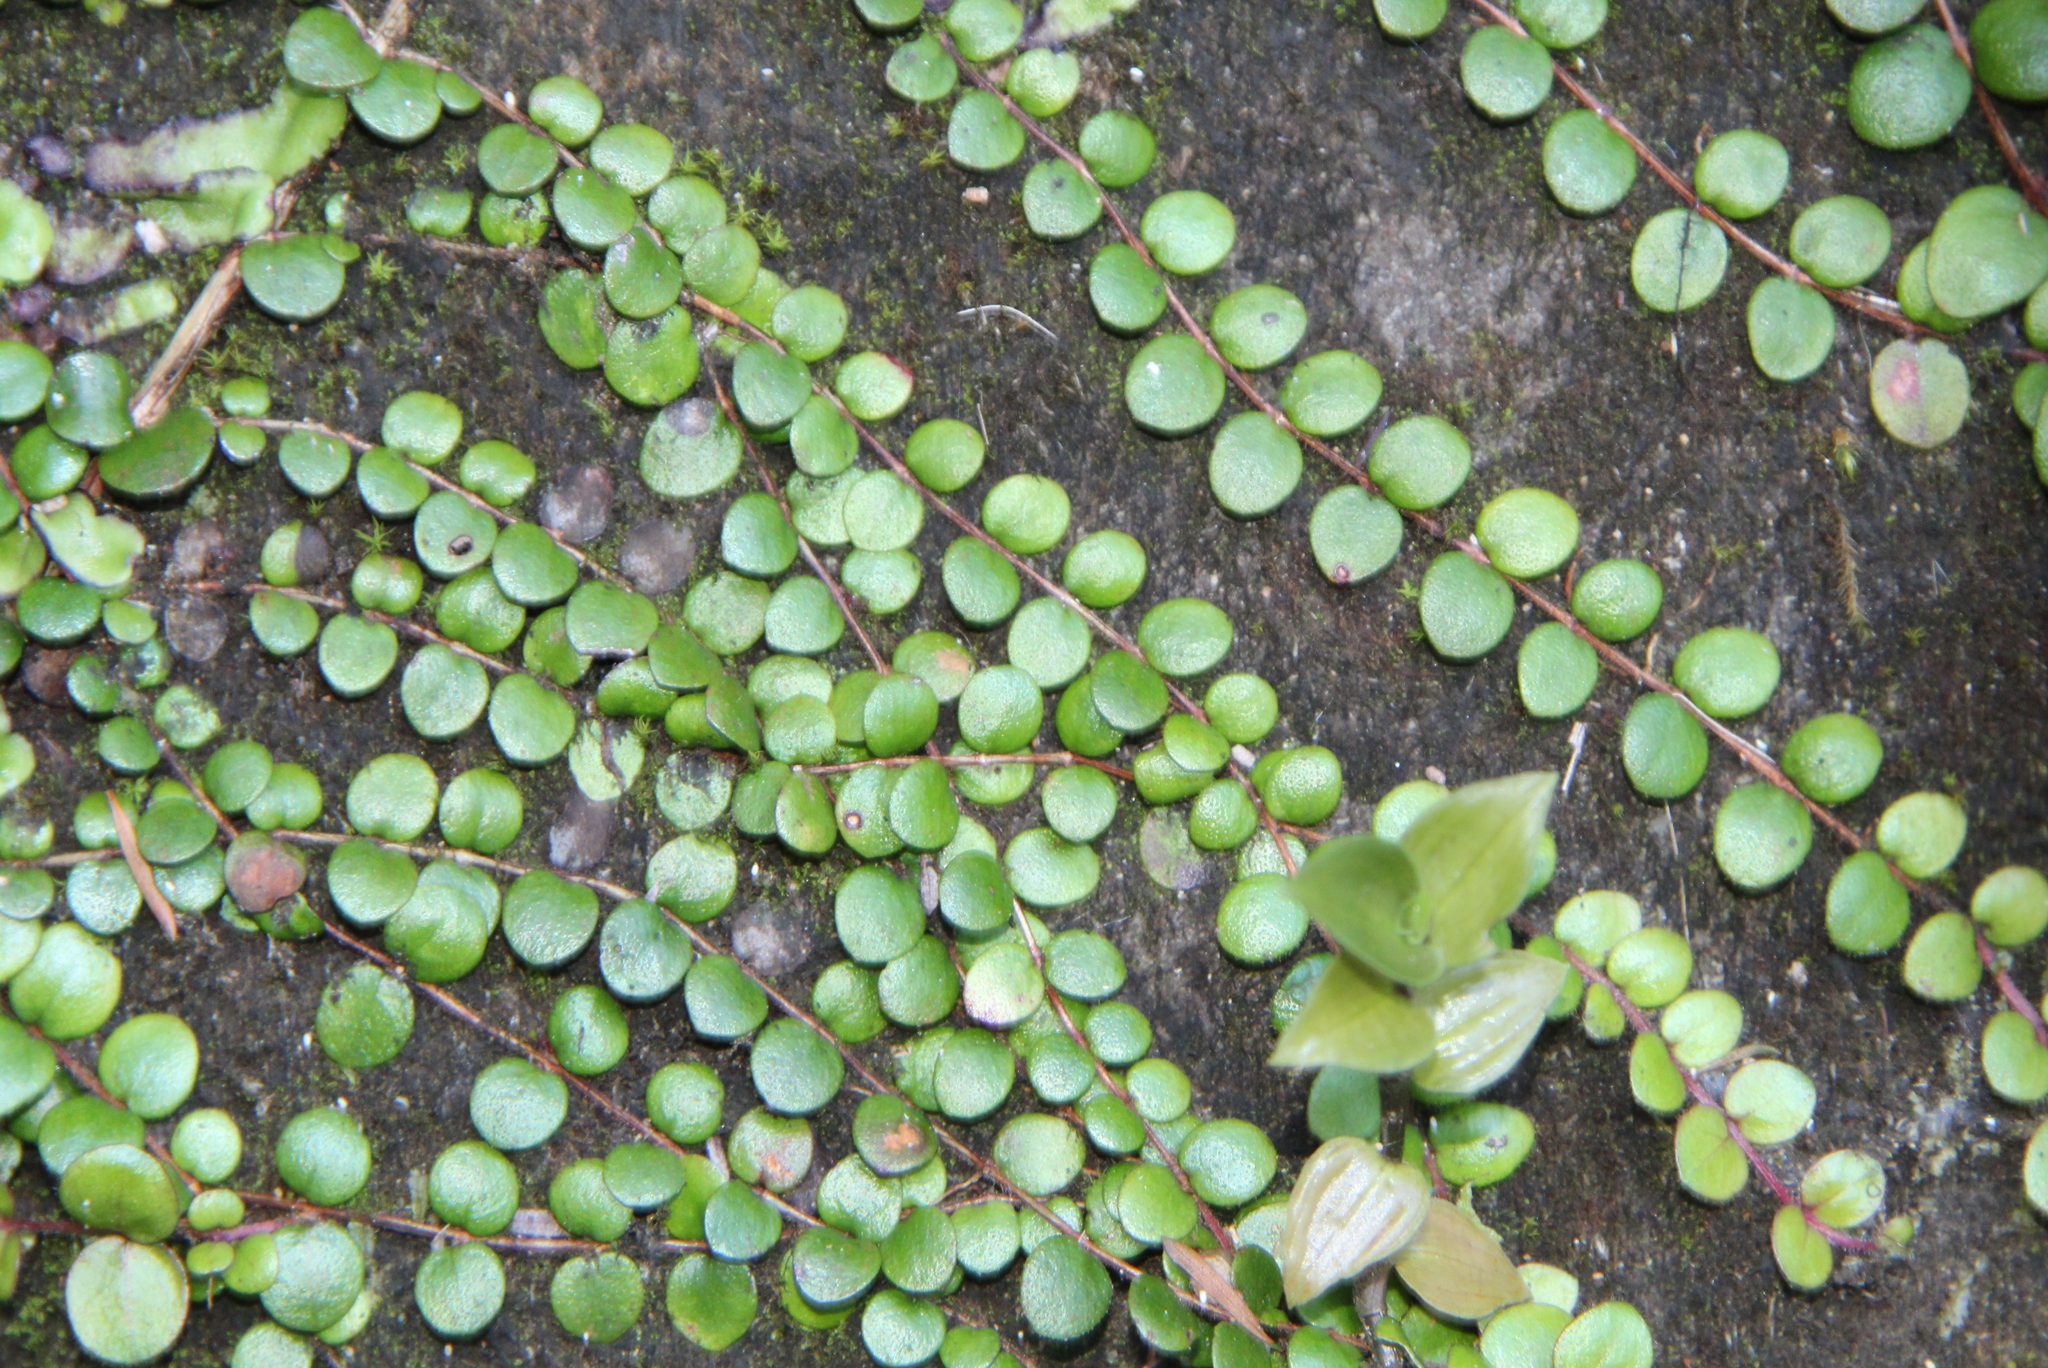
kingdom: Plantae
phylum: Tracheophyta
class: Magnoliopsida
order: Myrtales
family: Myrtaceae
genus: Metrosideros
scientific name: Metrosideros perforata
